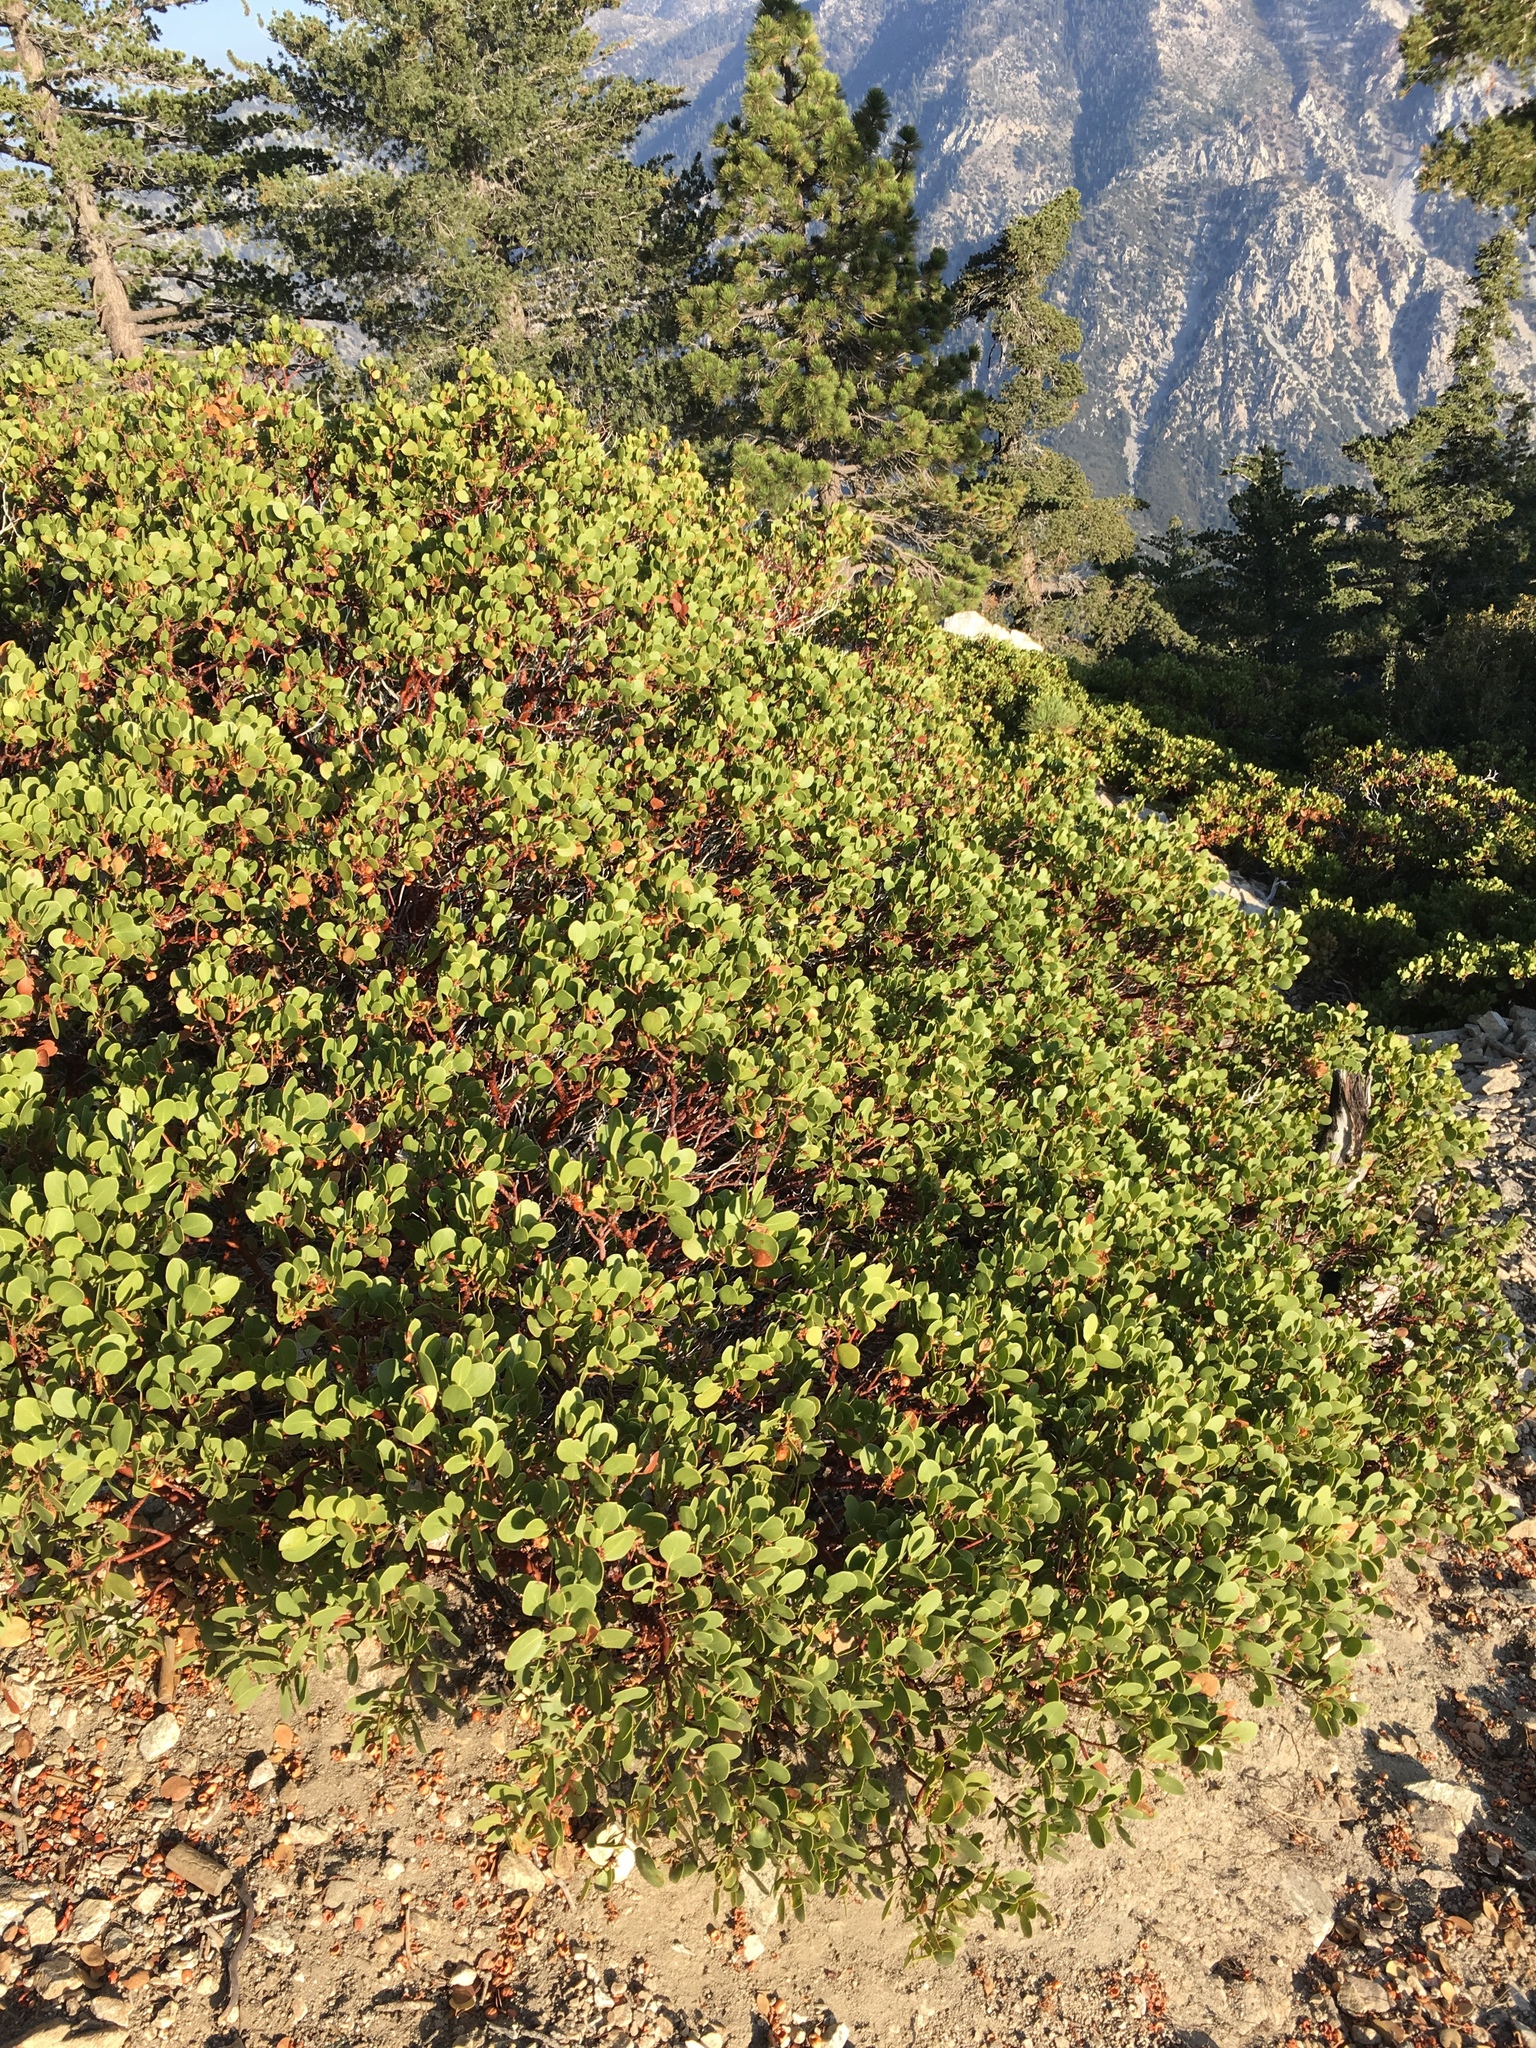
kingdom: Plantae
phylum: Tracheophyta
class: Magnoliopsida
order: Ericales
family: Ericaceae
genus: Arctostaphylos
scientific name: Arctostaphylos parryana
